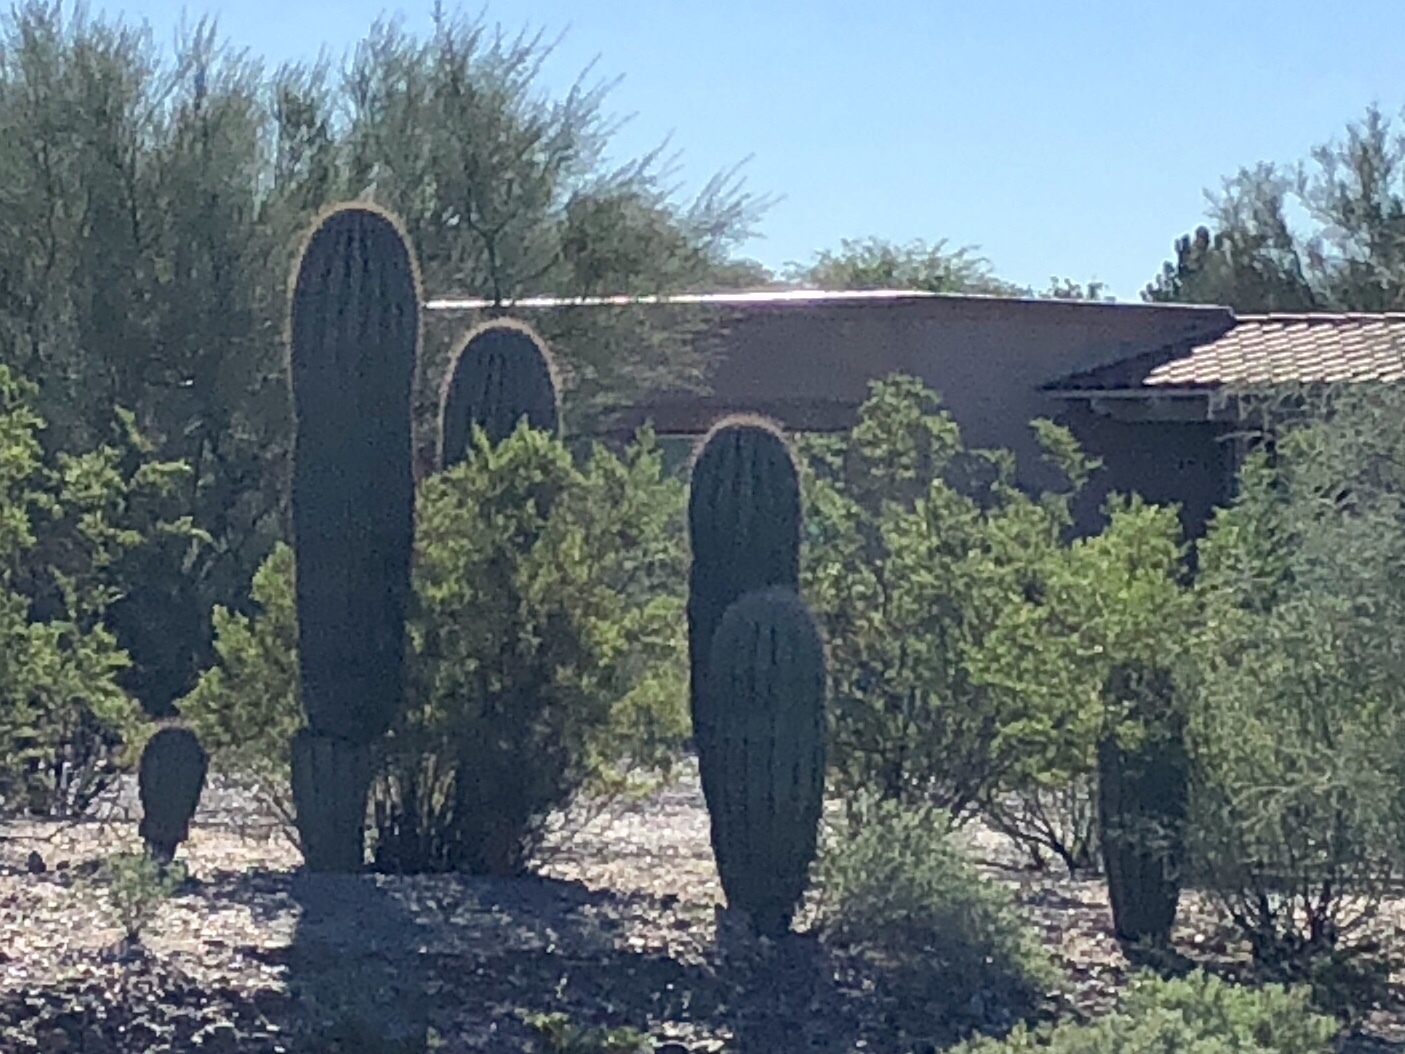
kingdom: Plantae
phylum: Tracheophyta
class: Magnoliopsida
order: Caryophyllales
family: Cactaceae
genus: Carnegiea
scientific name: Carnegiea gigantea
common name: Saguaro
